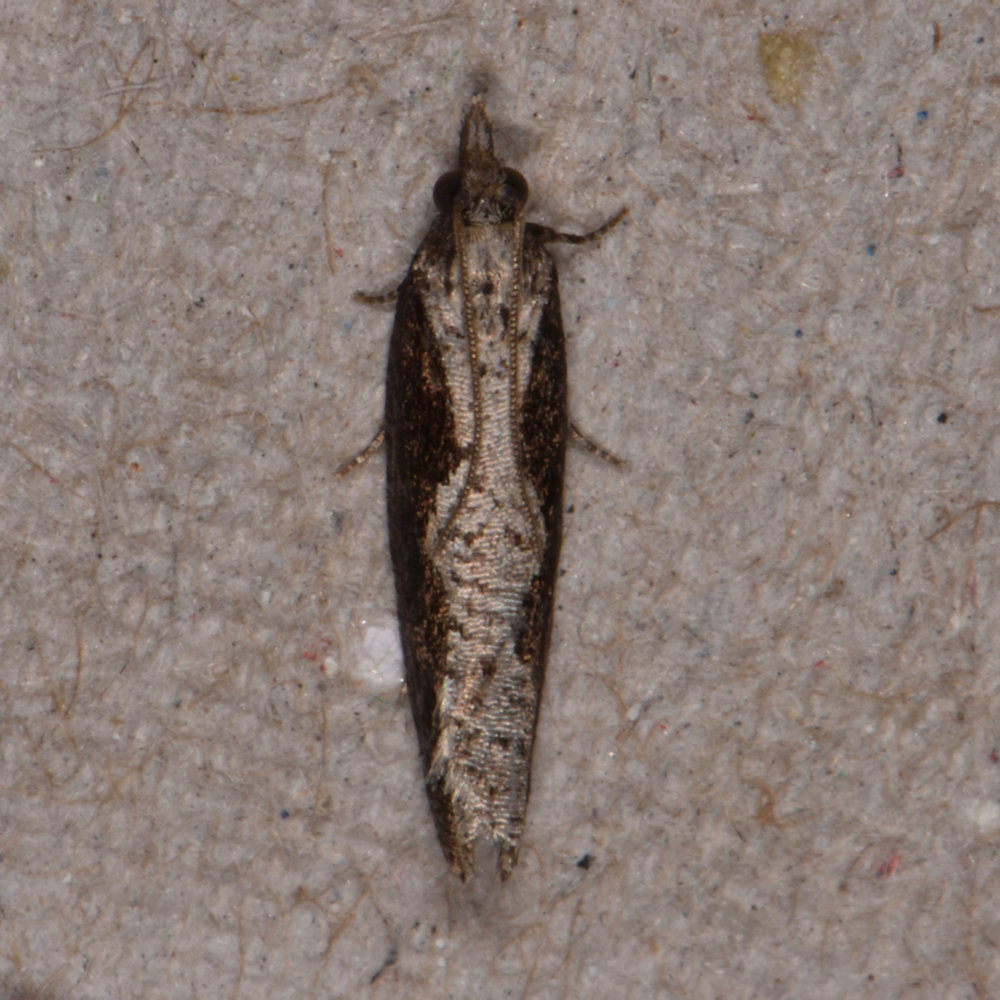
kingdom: Animalia
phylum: Arthropoda
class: Insecta
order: Lepidoptera
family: Tortricidae
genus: Epinotia
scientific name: Epinotia lindana
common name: Diamondback epinotia moth
